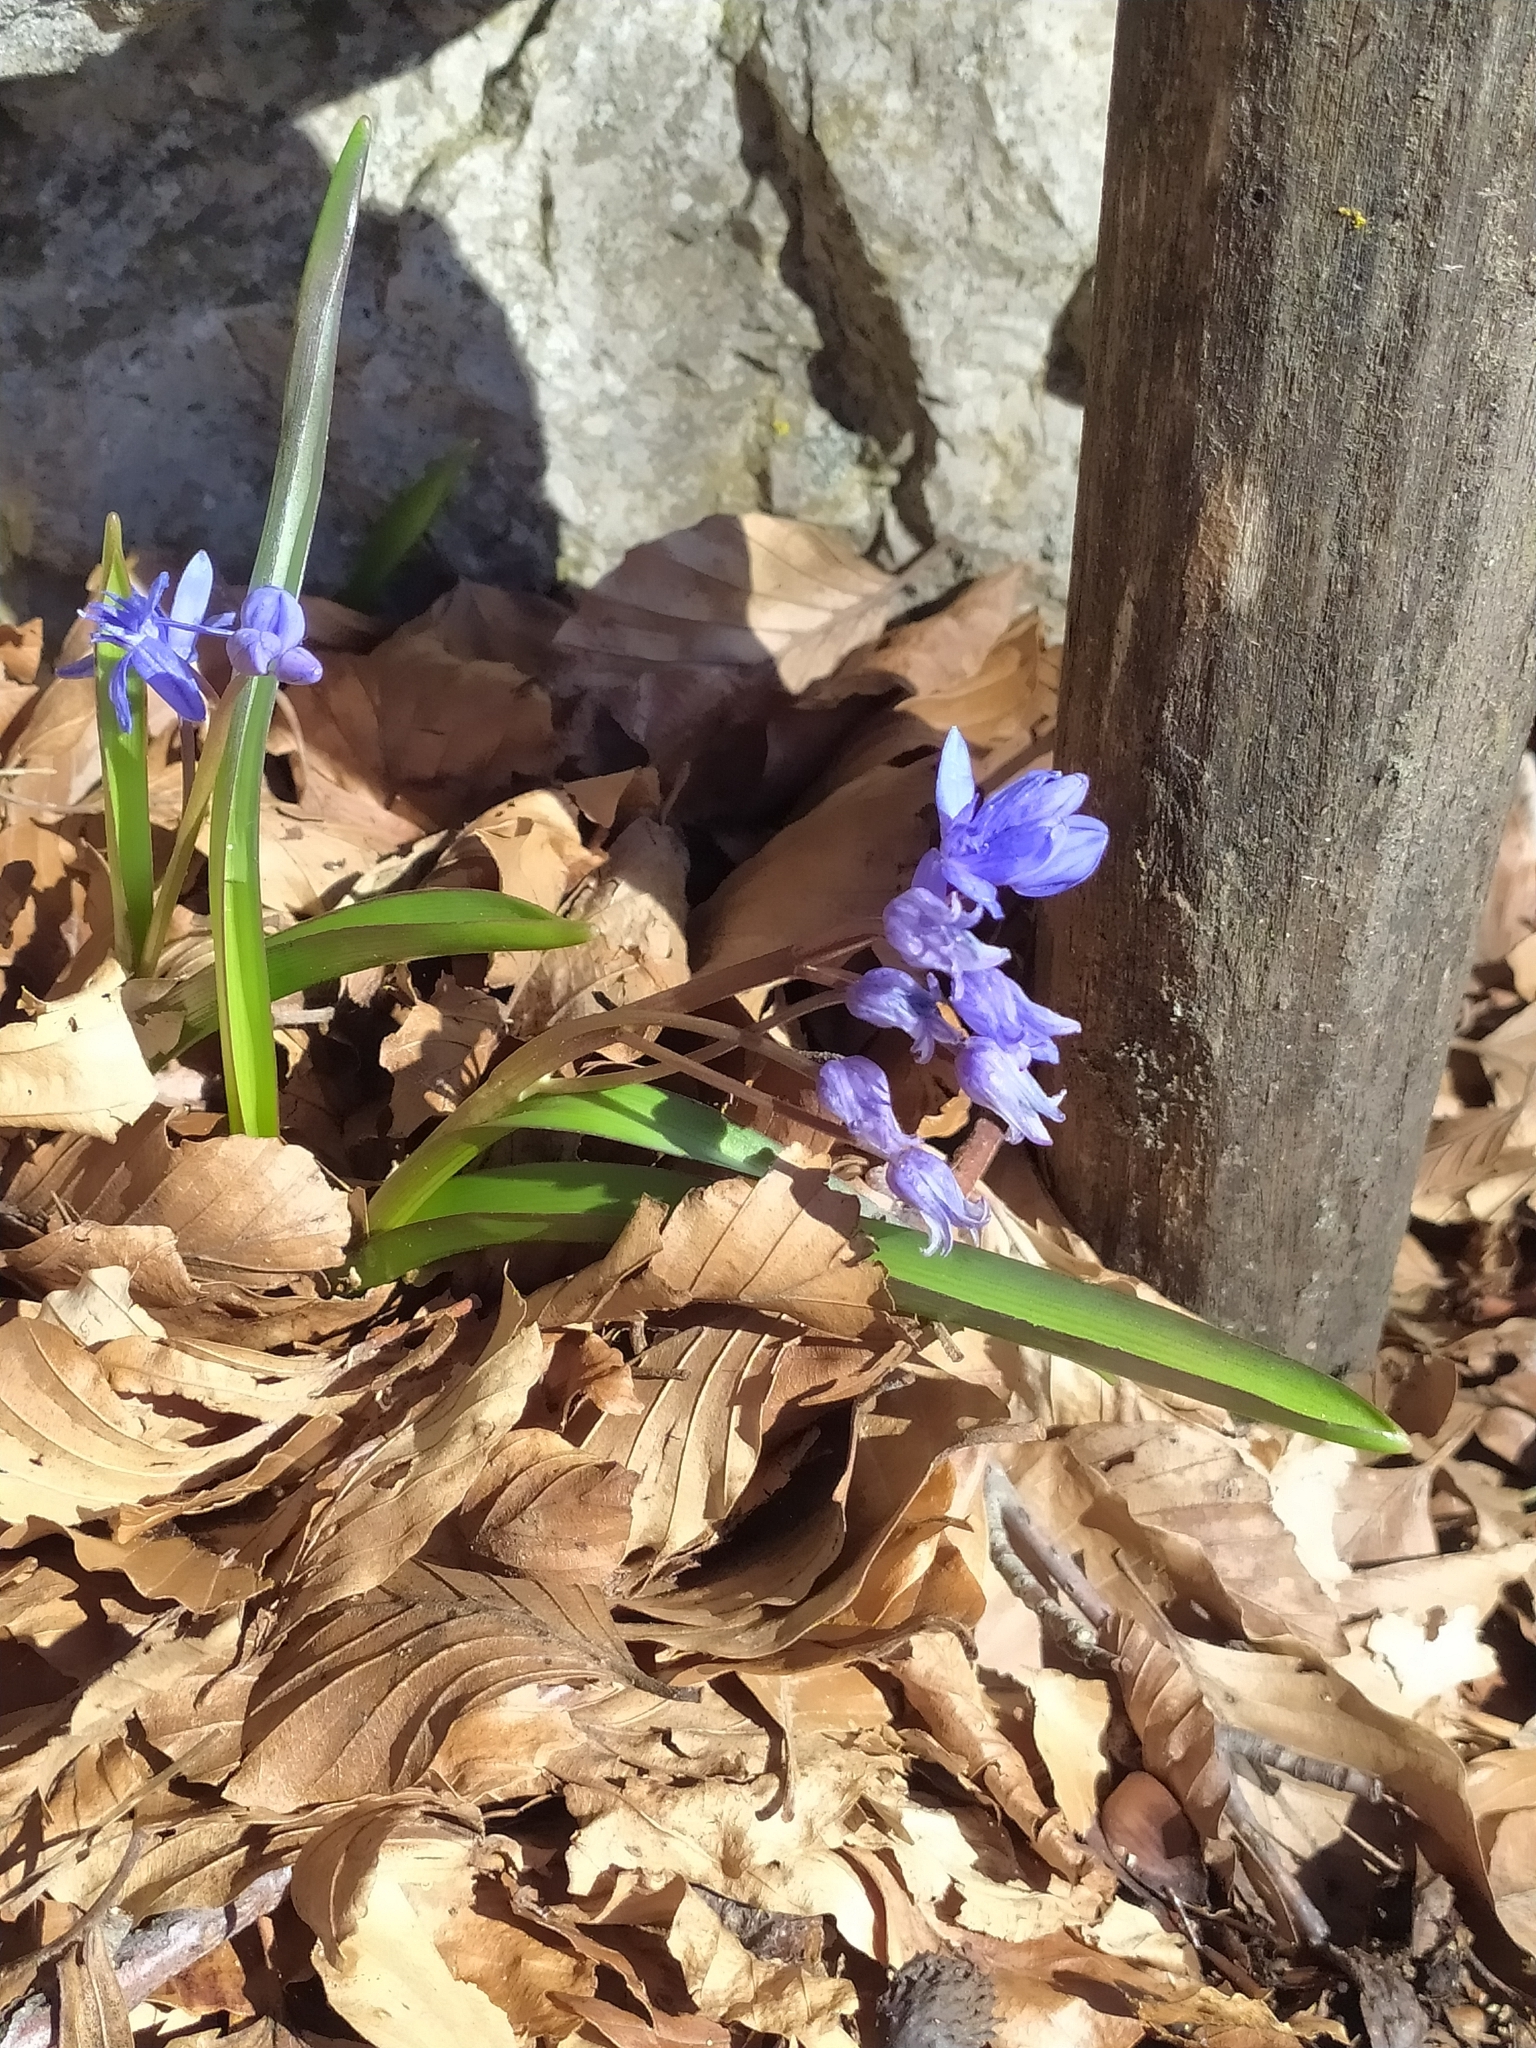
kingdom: Plantae
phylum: Tracheophyta
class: Liliopsida
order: Asparagales
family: Asparagaceae
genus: Scilla
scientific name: Scilla bifolia
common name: Alpine squill
